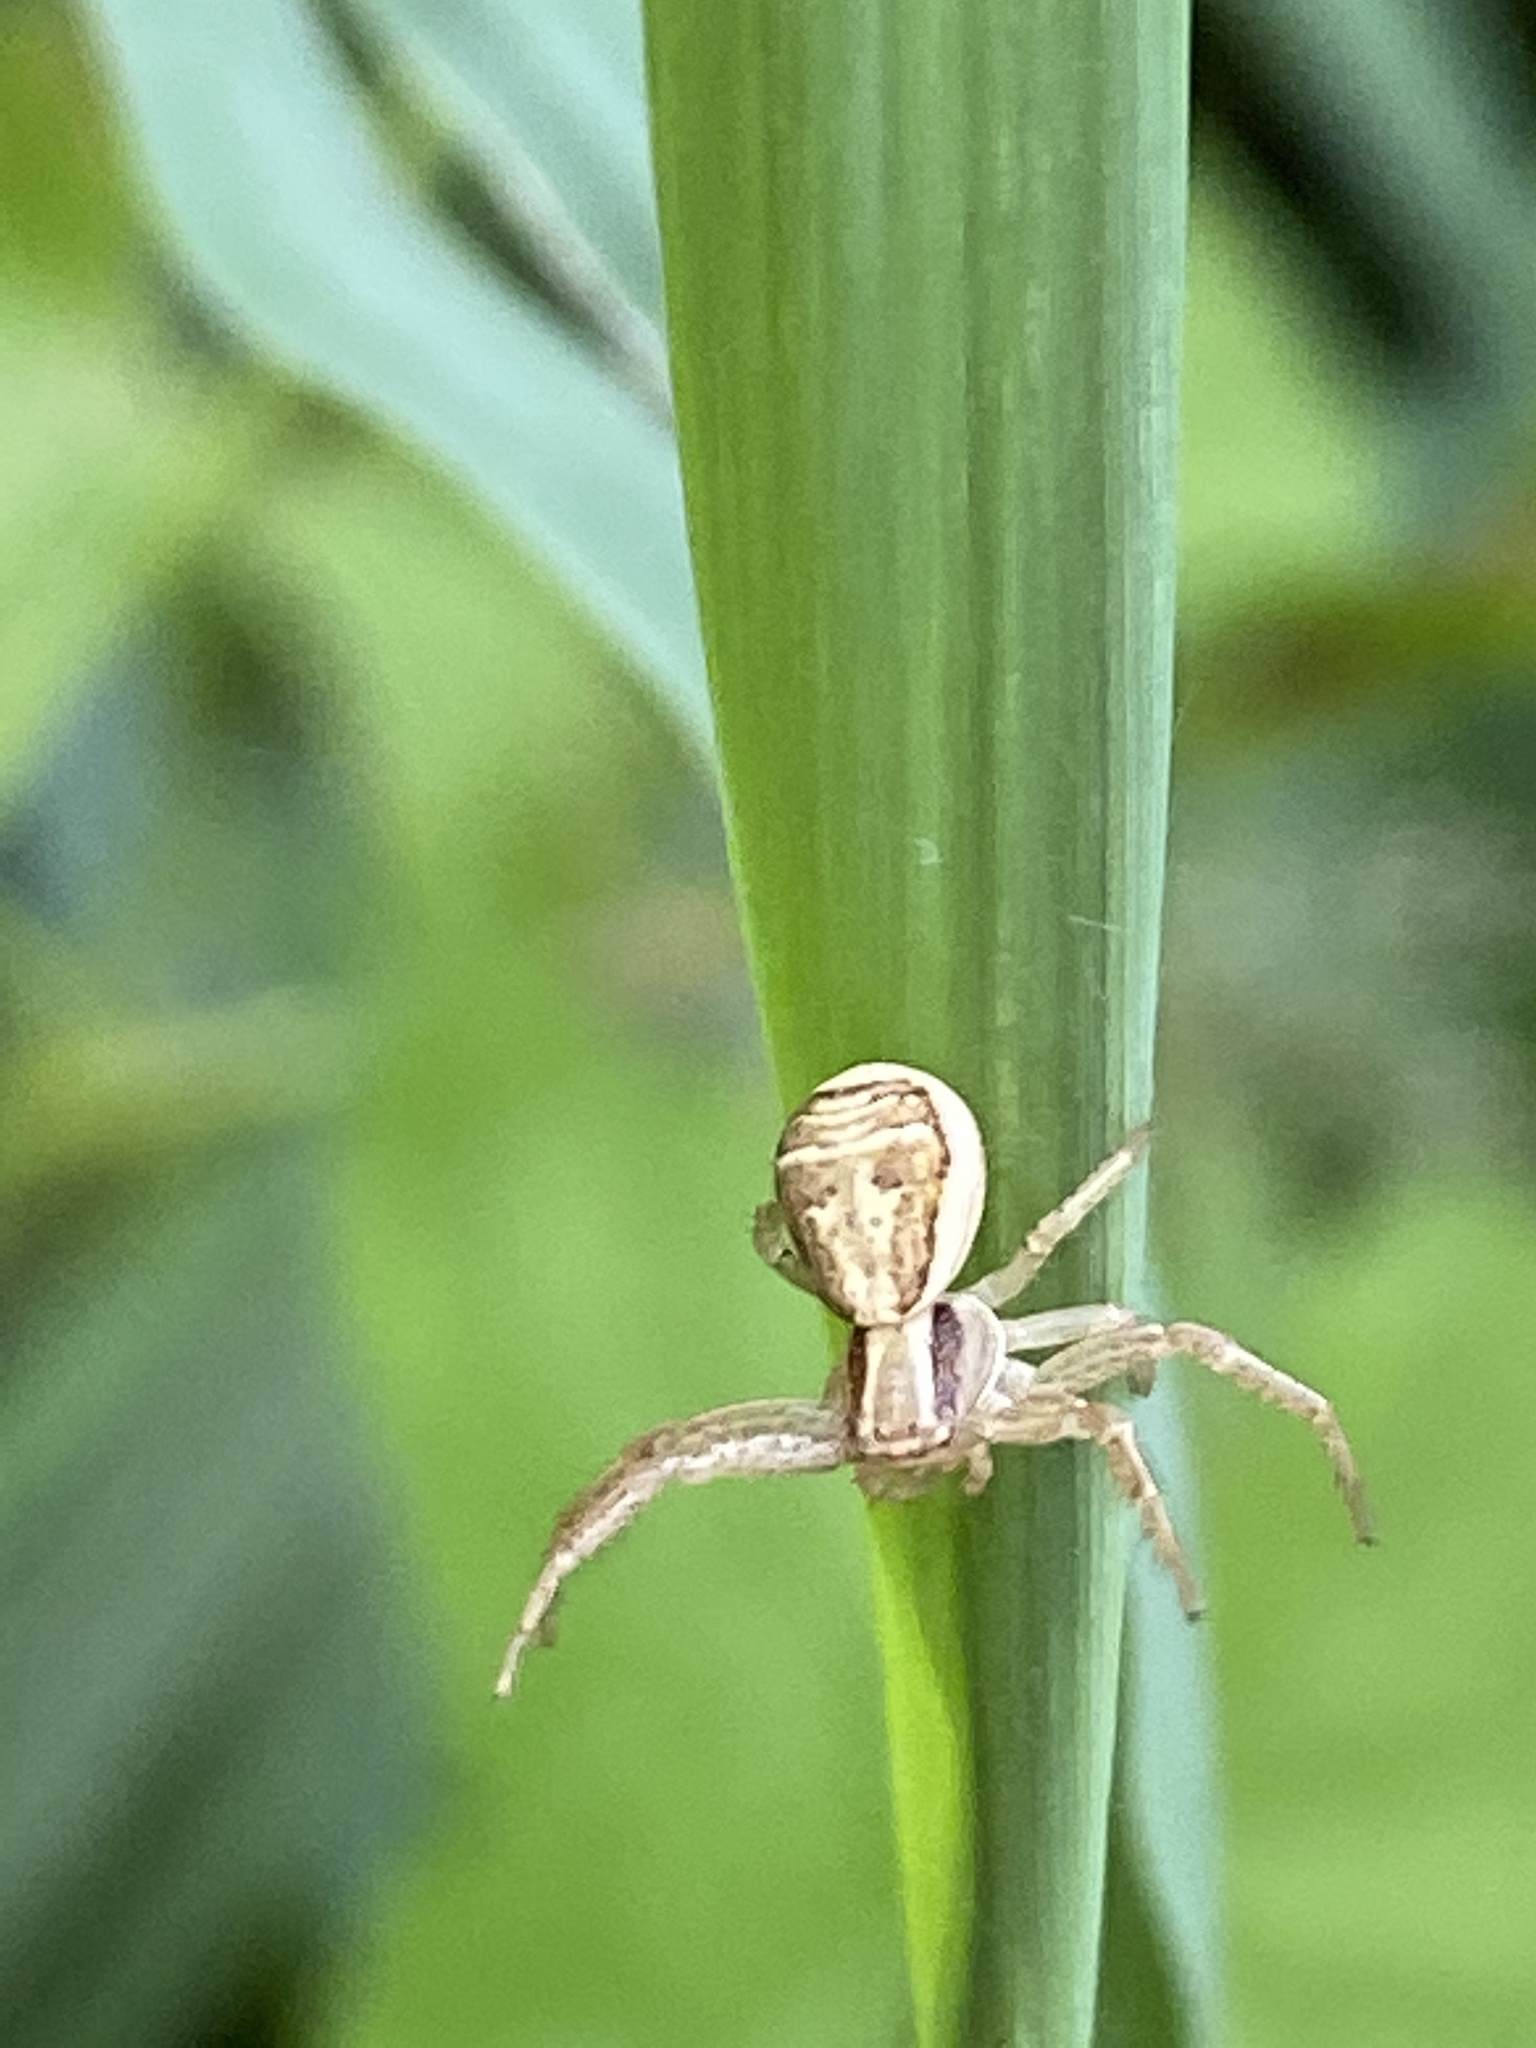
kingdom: Animalia
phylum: Arthropoda
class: Arachnida
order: Araneae
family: Thomisidae
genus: Xysticus
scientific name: Xysticus ulmi
